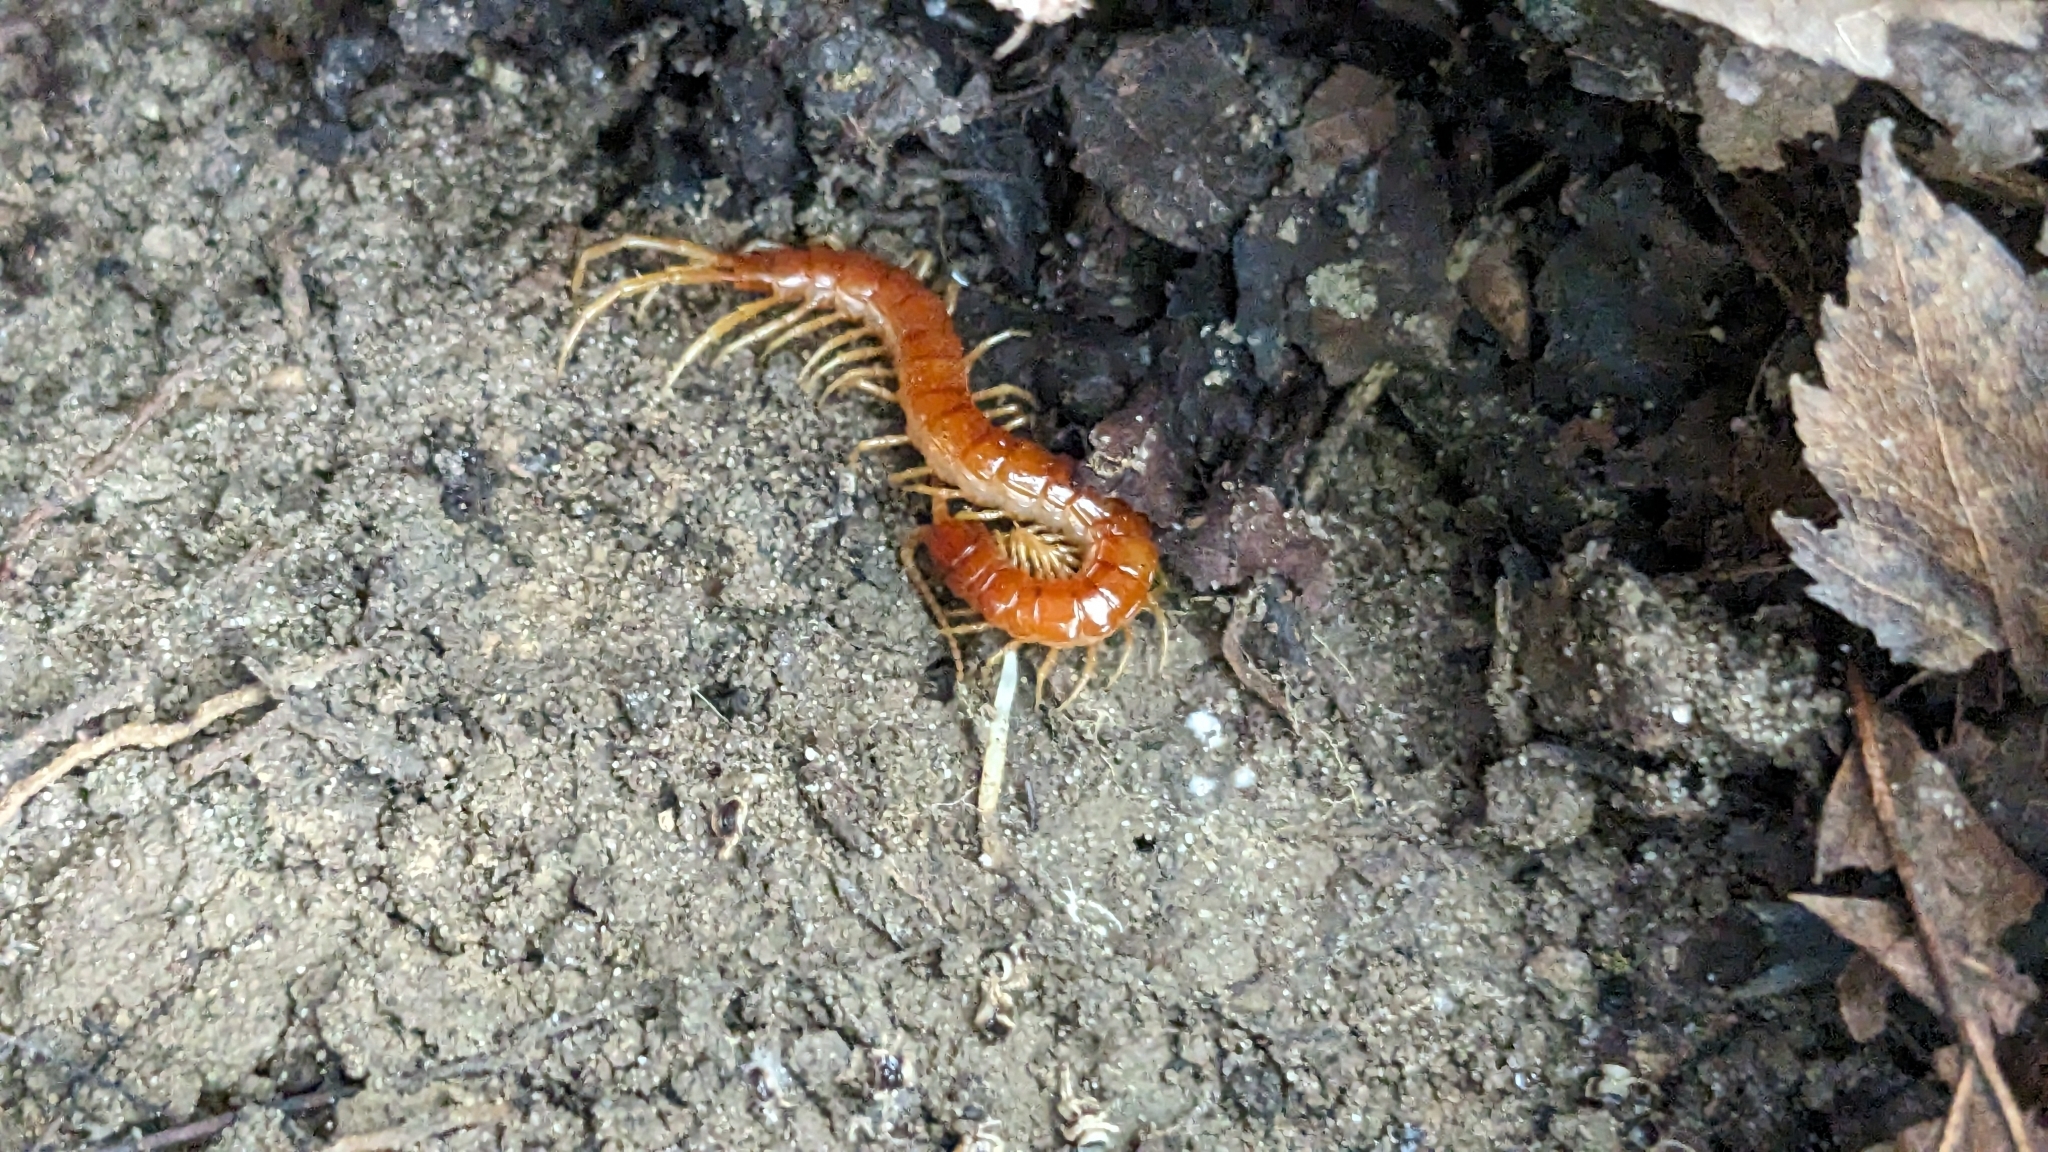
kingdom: Animalia
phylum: Arthropoda
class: Chilopoda
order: Scolopendromorpha
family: Scolopocryptopidae
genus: Scolopocryptops
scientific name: Scolopocryptops sexspinosus
